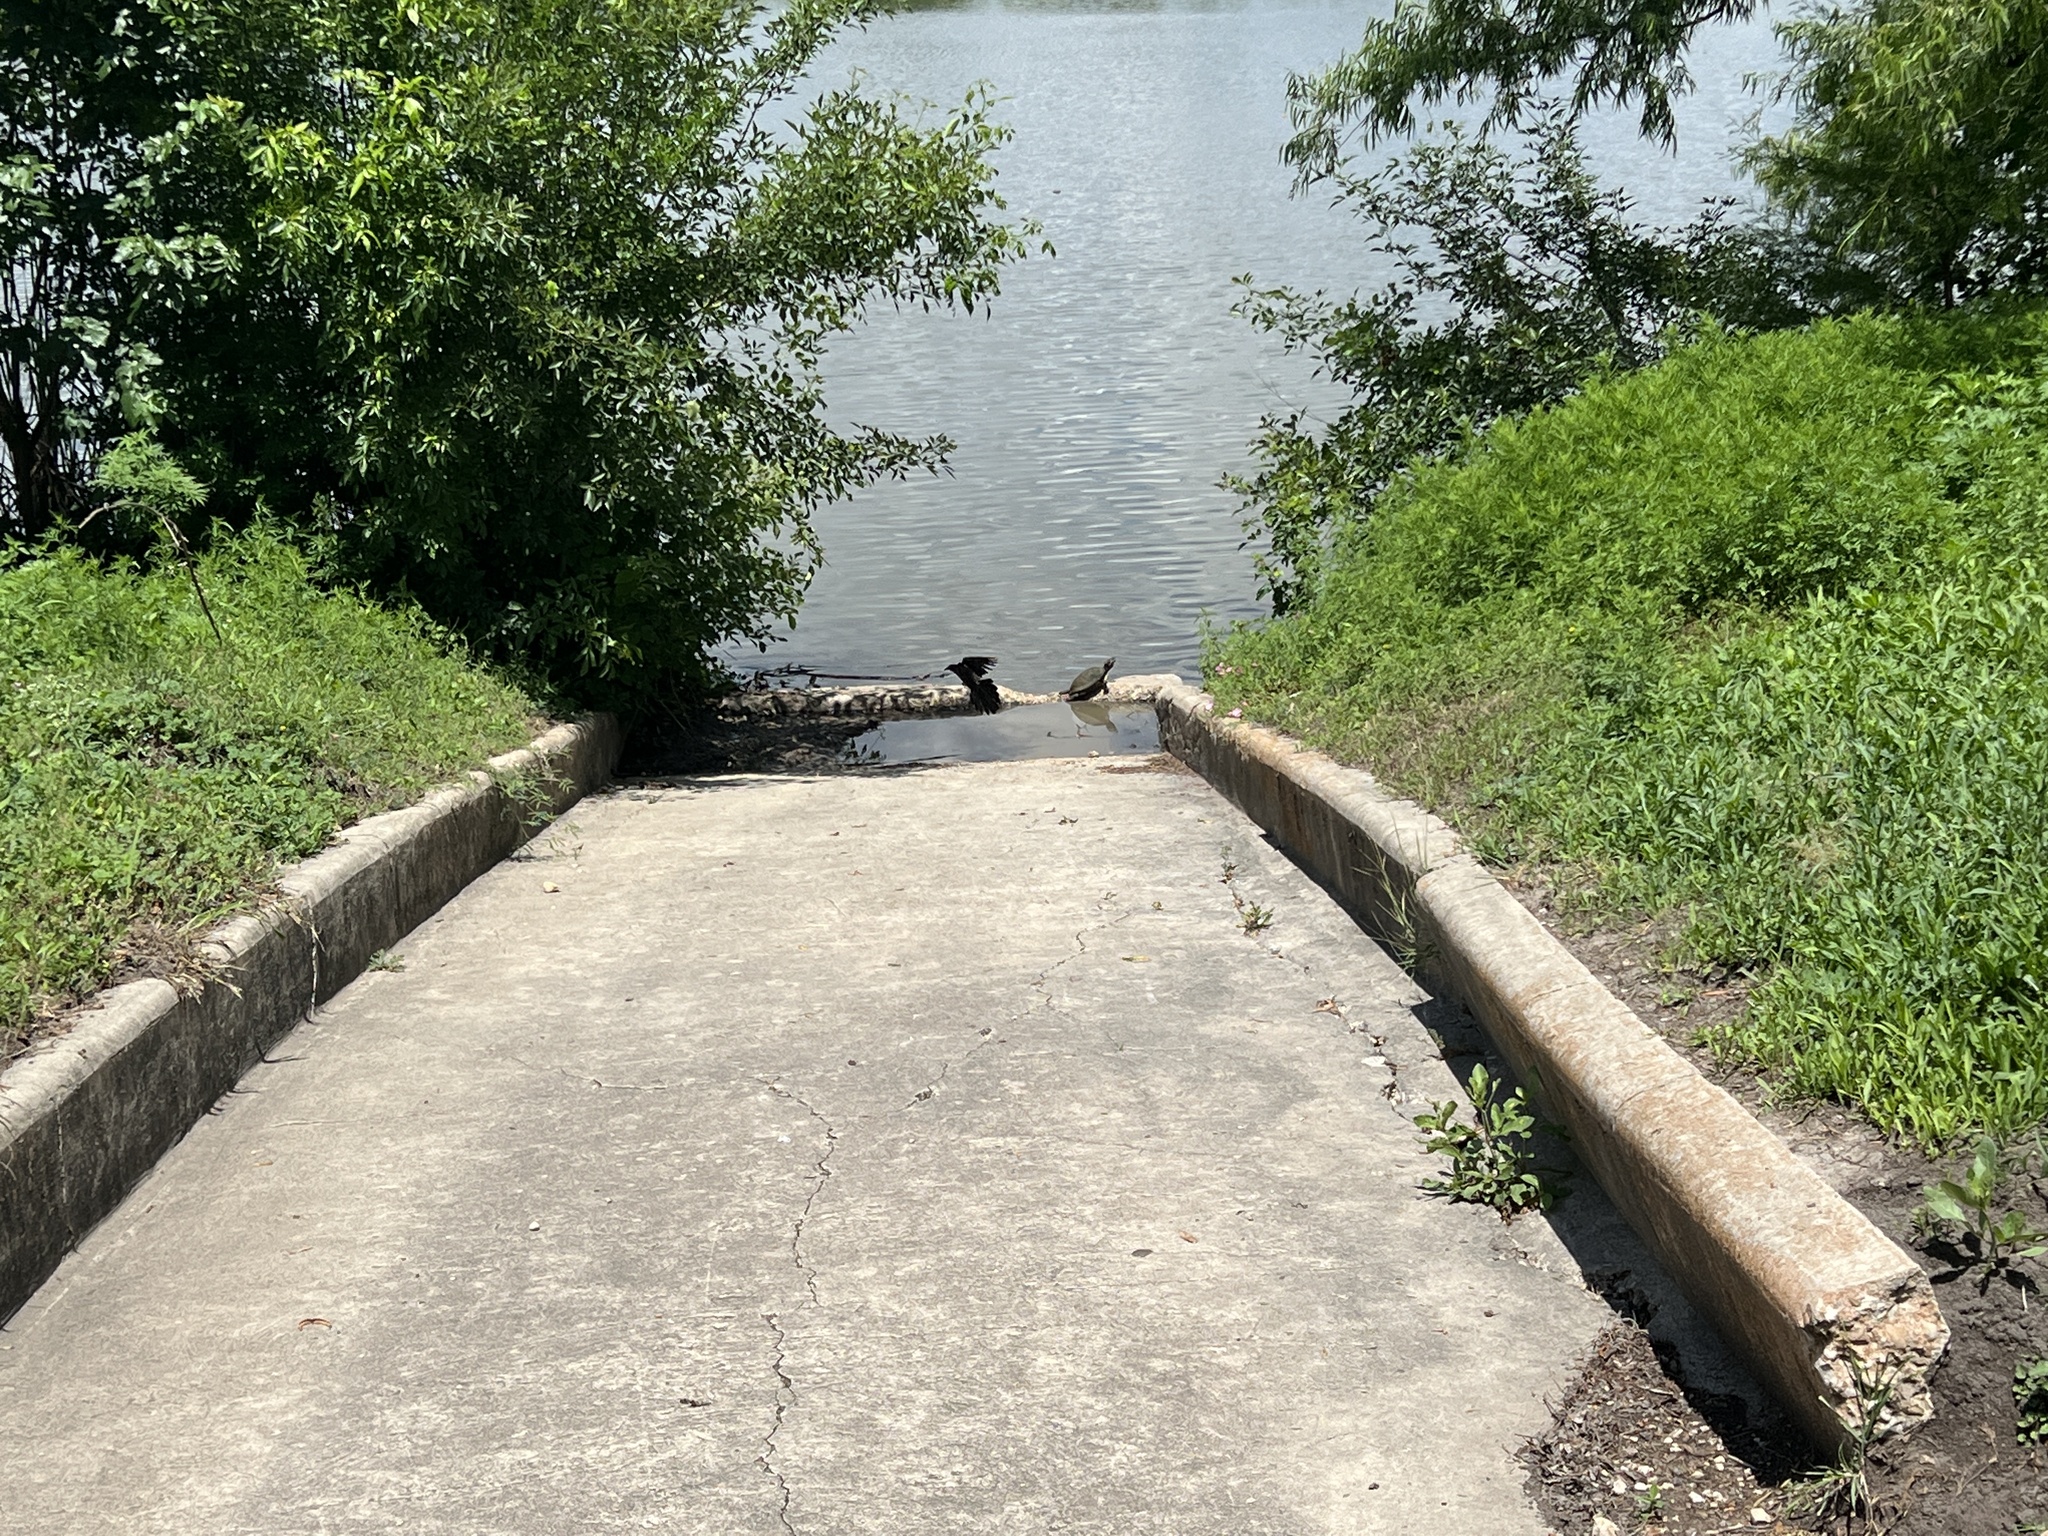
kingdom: Animalia
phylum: Chordata
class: Testudines
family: Emydidae
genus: Trachemys
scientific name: Trachemys scripta
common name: Slider
